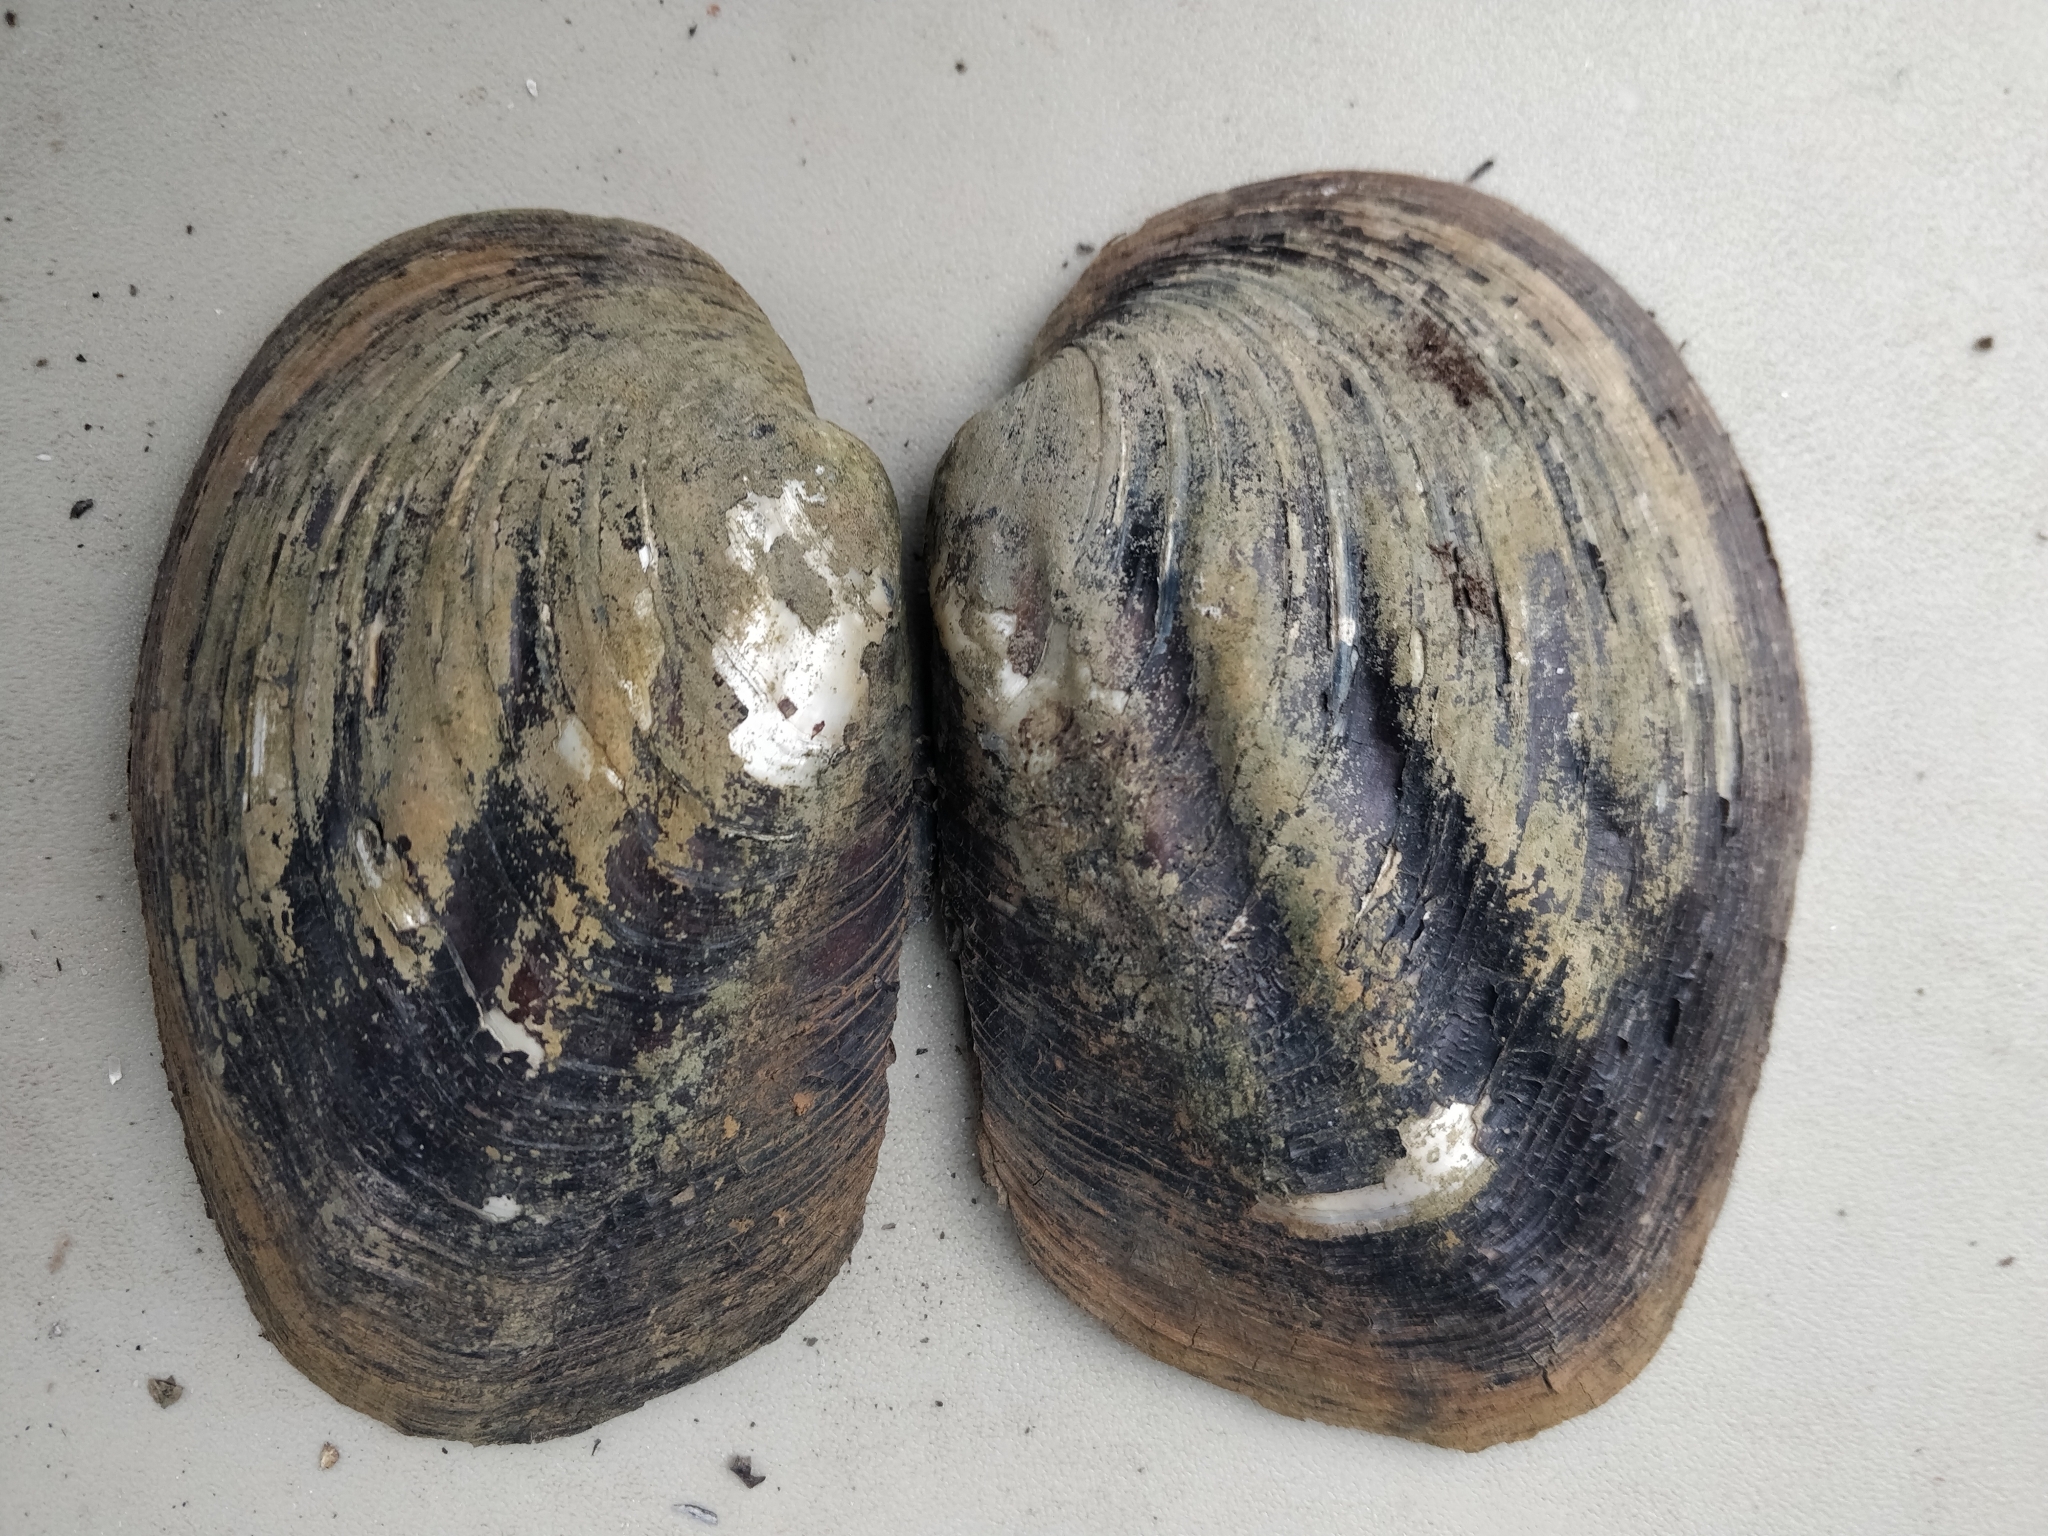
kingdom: Animalia
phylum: Mollusca
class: Bivalvia
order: Unionida
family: Unionidae
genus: Amblema
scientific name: Amblema plicata
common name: Threeridge
